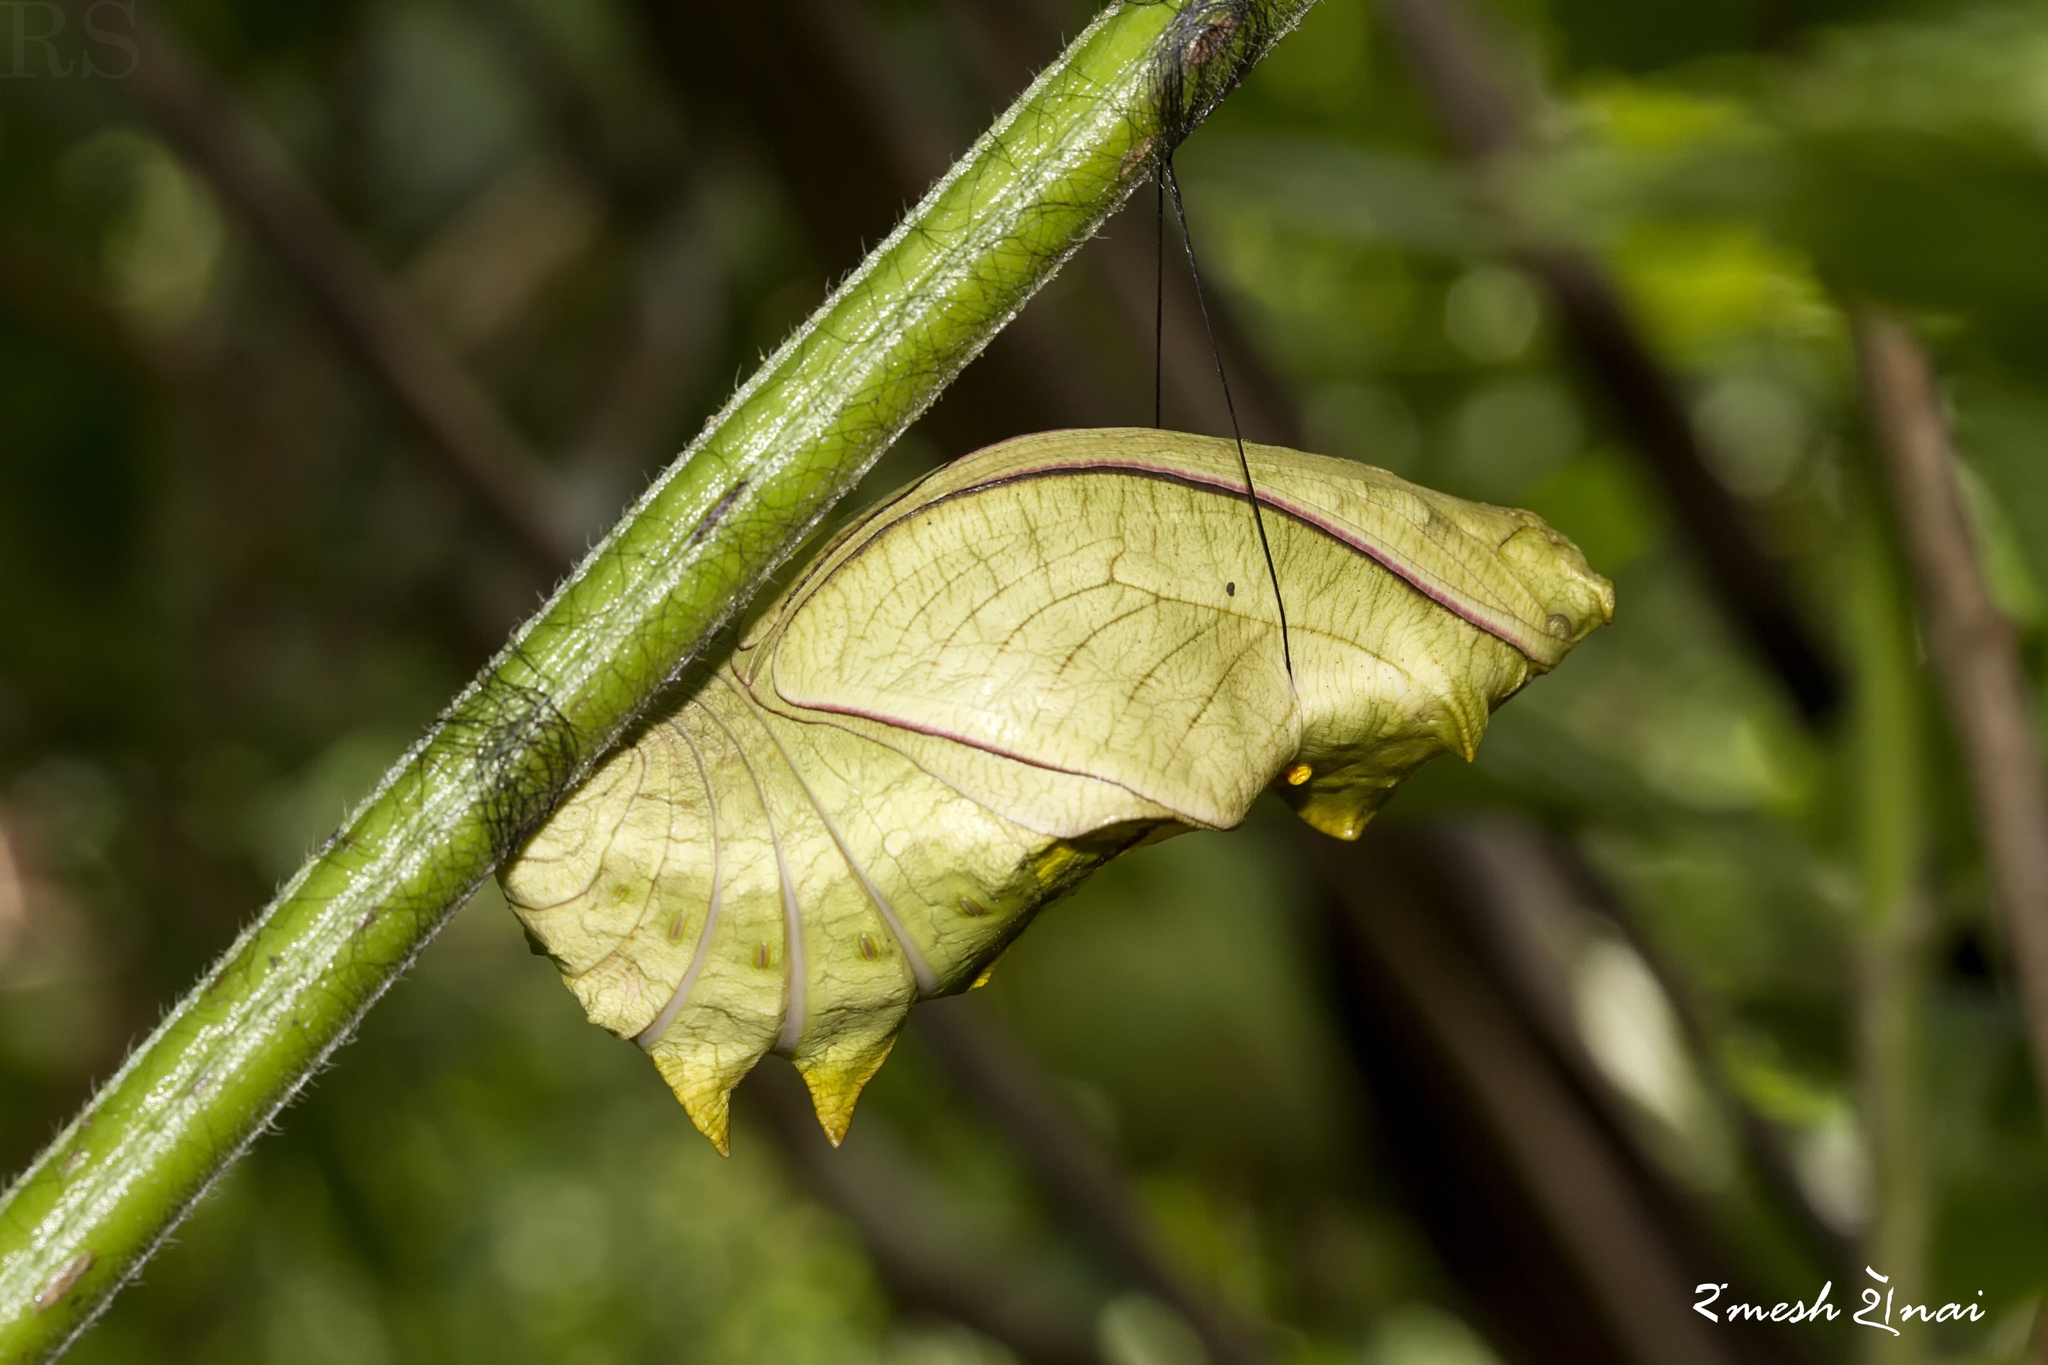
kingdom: Animalia
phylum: Arthropoda
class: Insecta
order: Lepidoptera
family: Papilionidae
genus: Troides
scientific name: Troides minos
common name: Malabar birdwing
